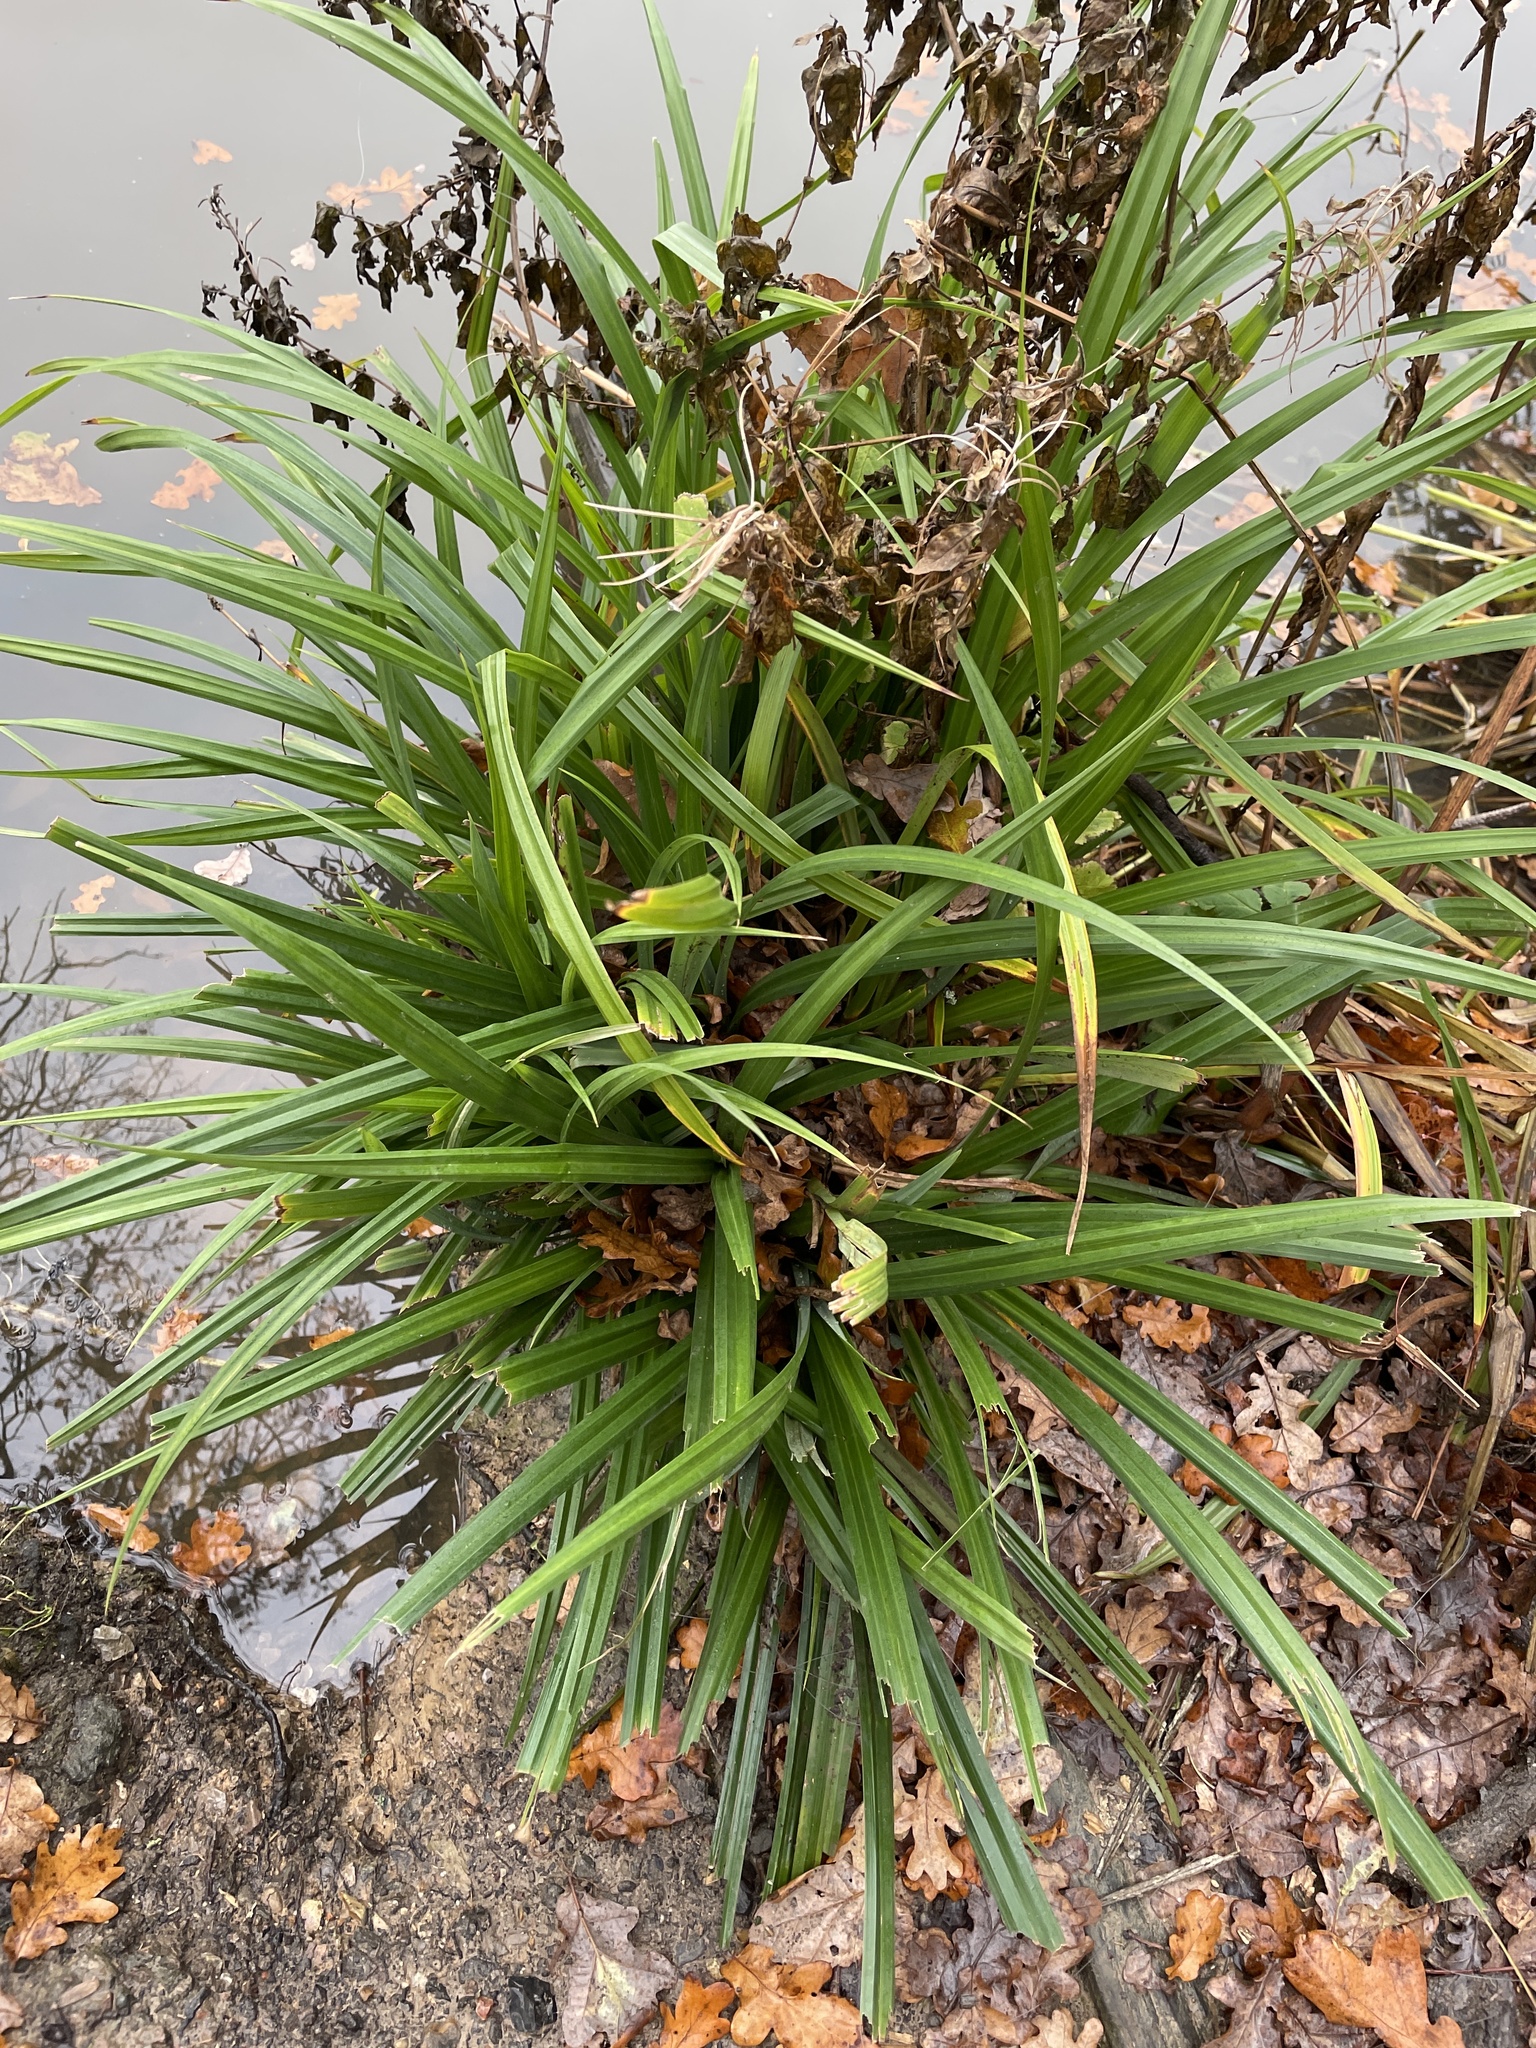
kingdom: Plantae
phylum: Tracheophyta
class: Liliopsida
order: Poales
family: Cyperaceae
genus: Carex
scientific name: Carex pendula
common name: Pendulous sedge
